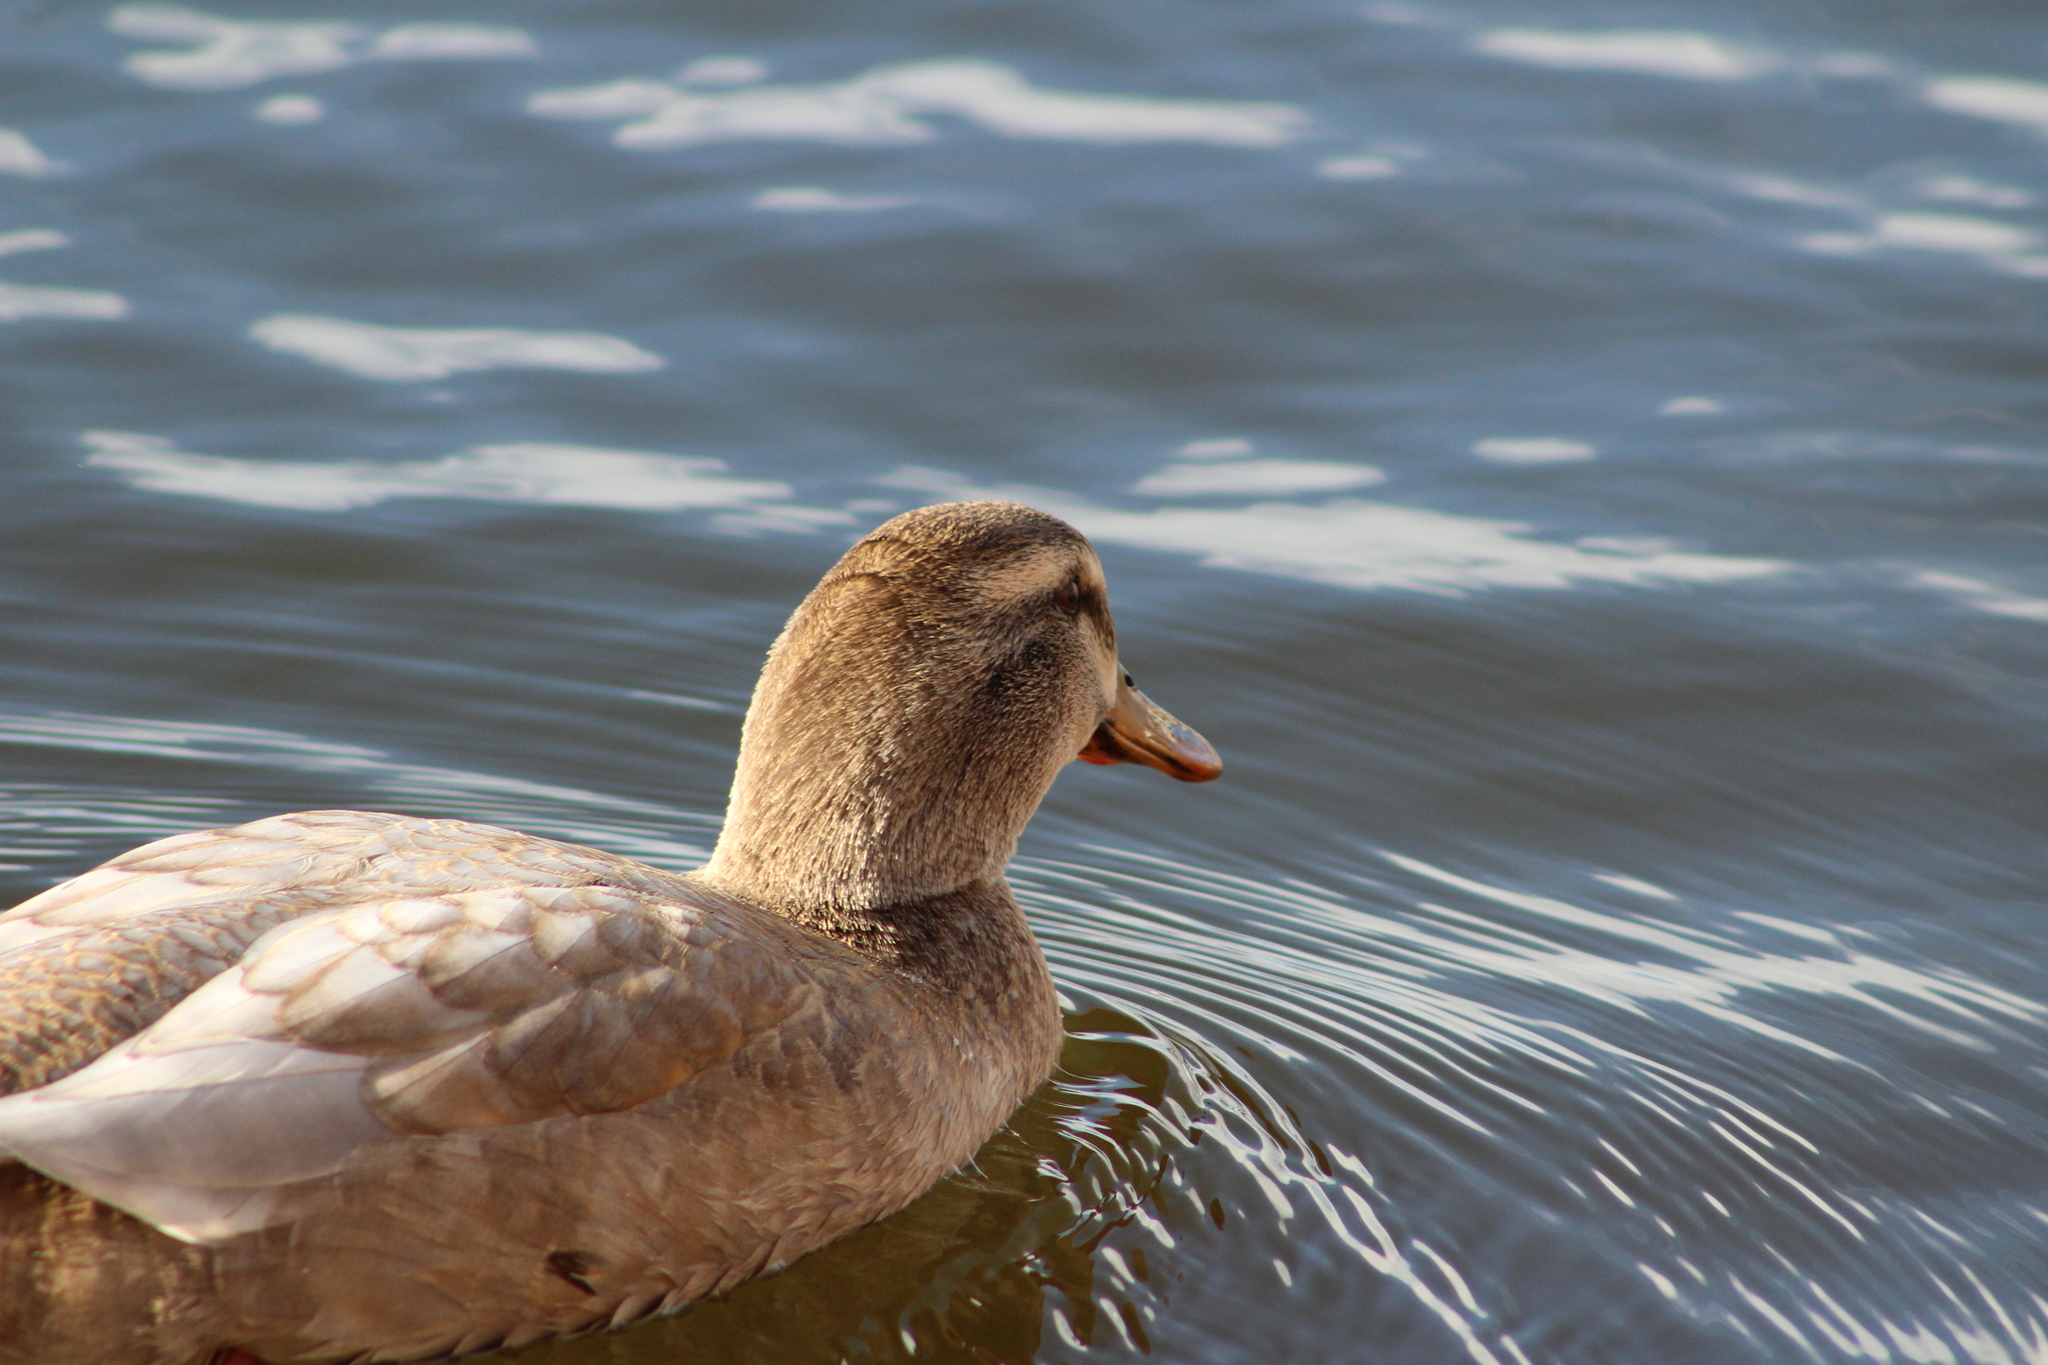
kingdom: Animalia
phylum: Chordata
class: Aves
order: Anseriformes
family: Anatidae
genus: Anas
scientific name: Anas platyrhynchos
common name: Mallard
